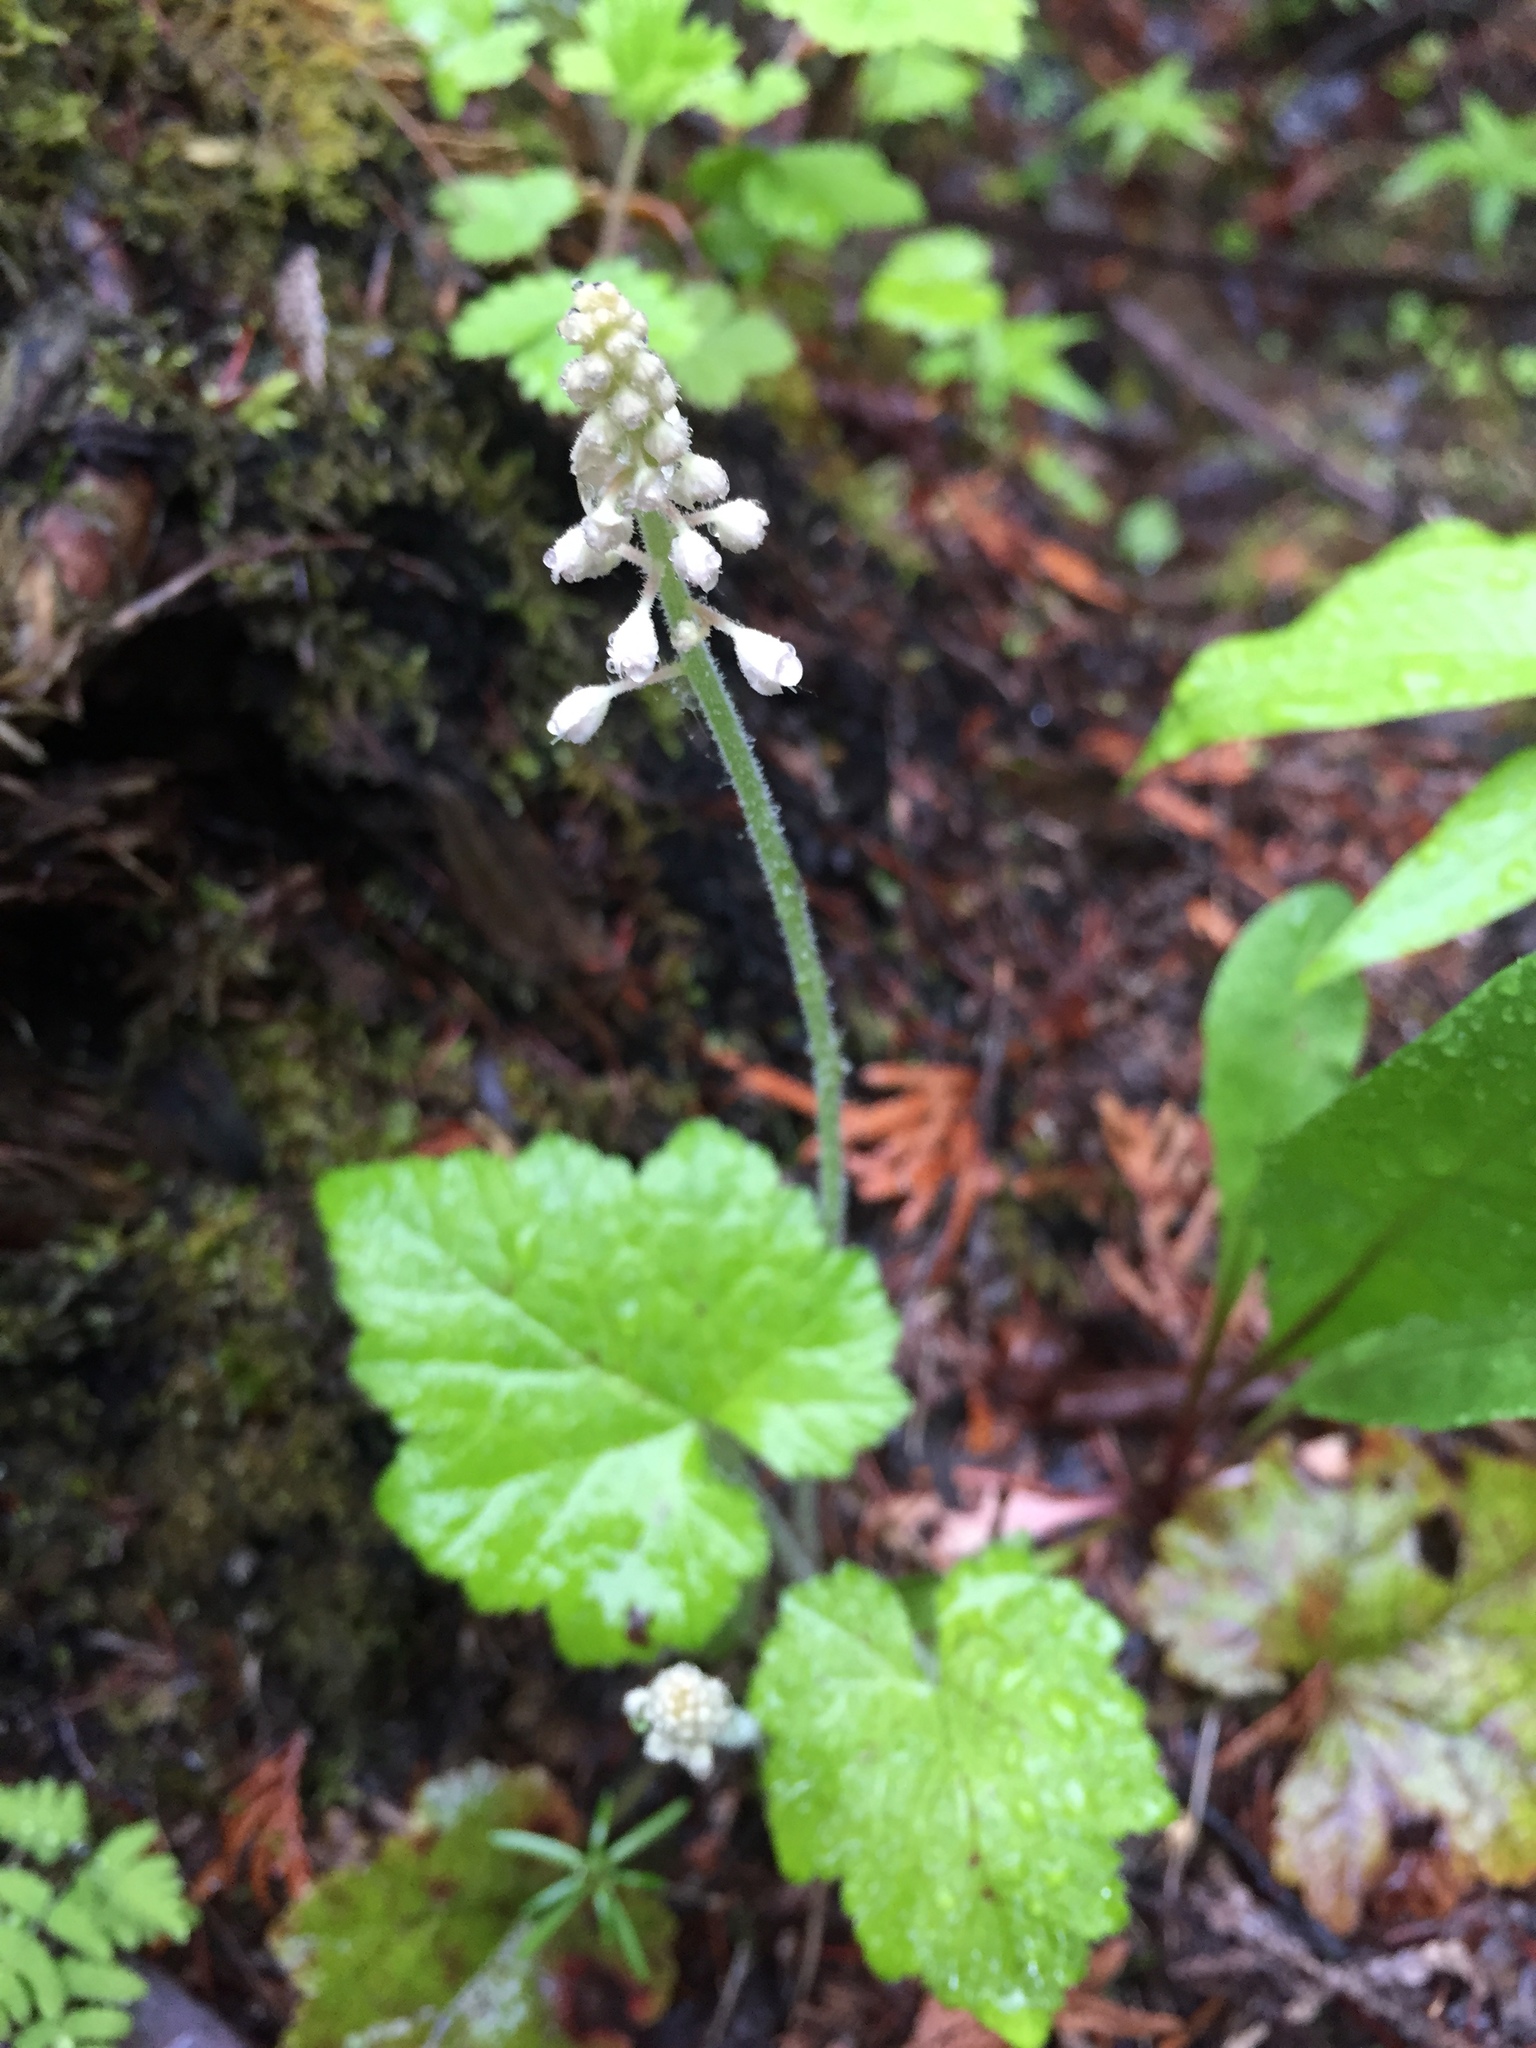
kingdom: Plantae
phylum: Tracheophyta
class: Magnoliopsida
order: Saxifragales
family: Saxifragaceae
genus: Tiarella
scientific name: Tiarella stolonifera
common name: Stoloniferous foamflower
